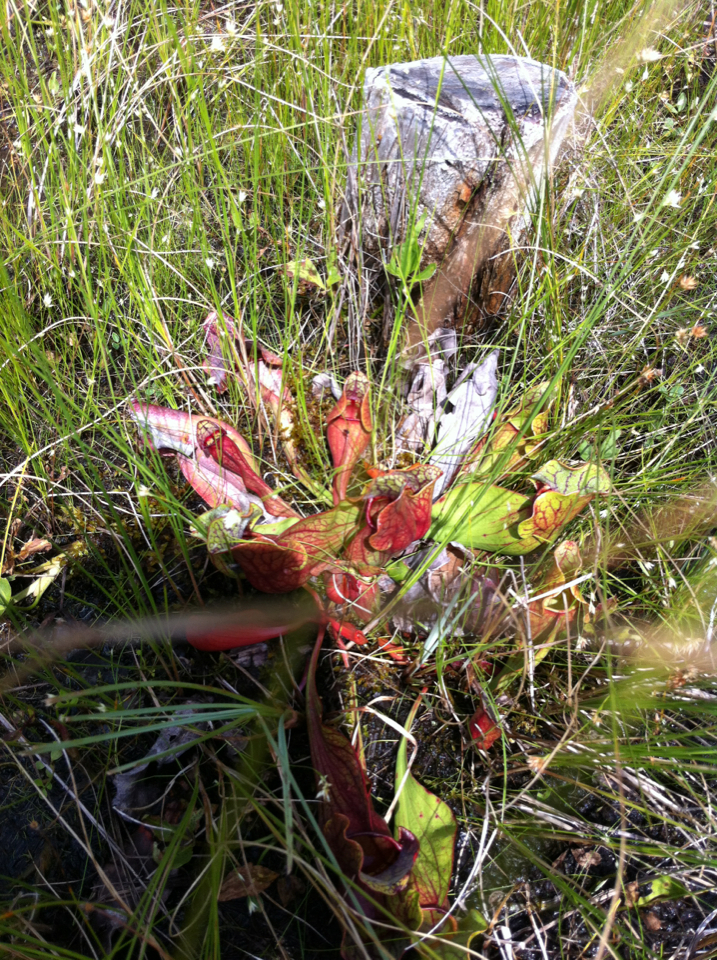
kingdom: Plantae
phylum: Tracheophyta
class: Magnoliopsida
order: Ericales
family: Sarraceniaceae
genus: Sarracenia
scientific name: Sarracenia purpurea
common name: Pitcherplant
